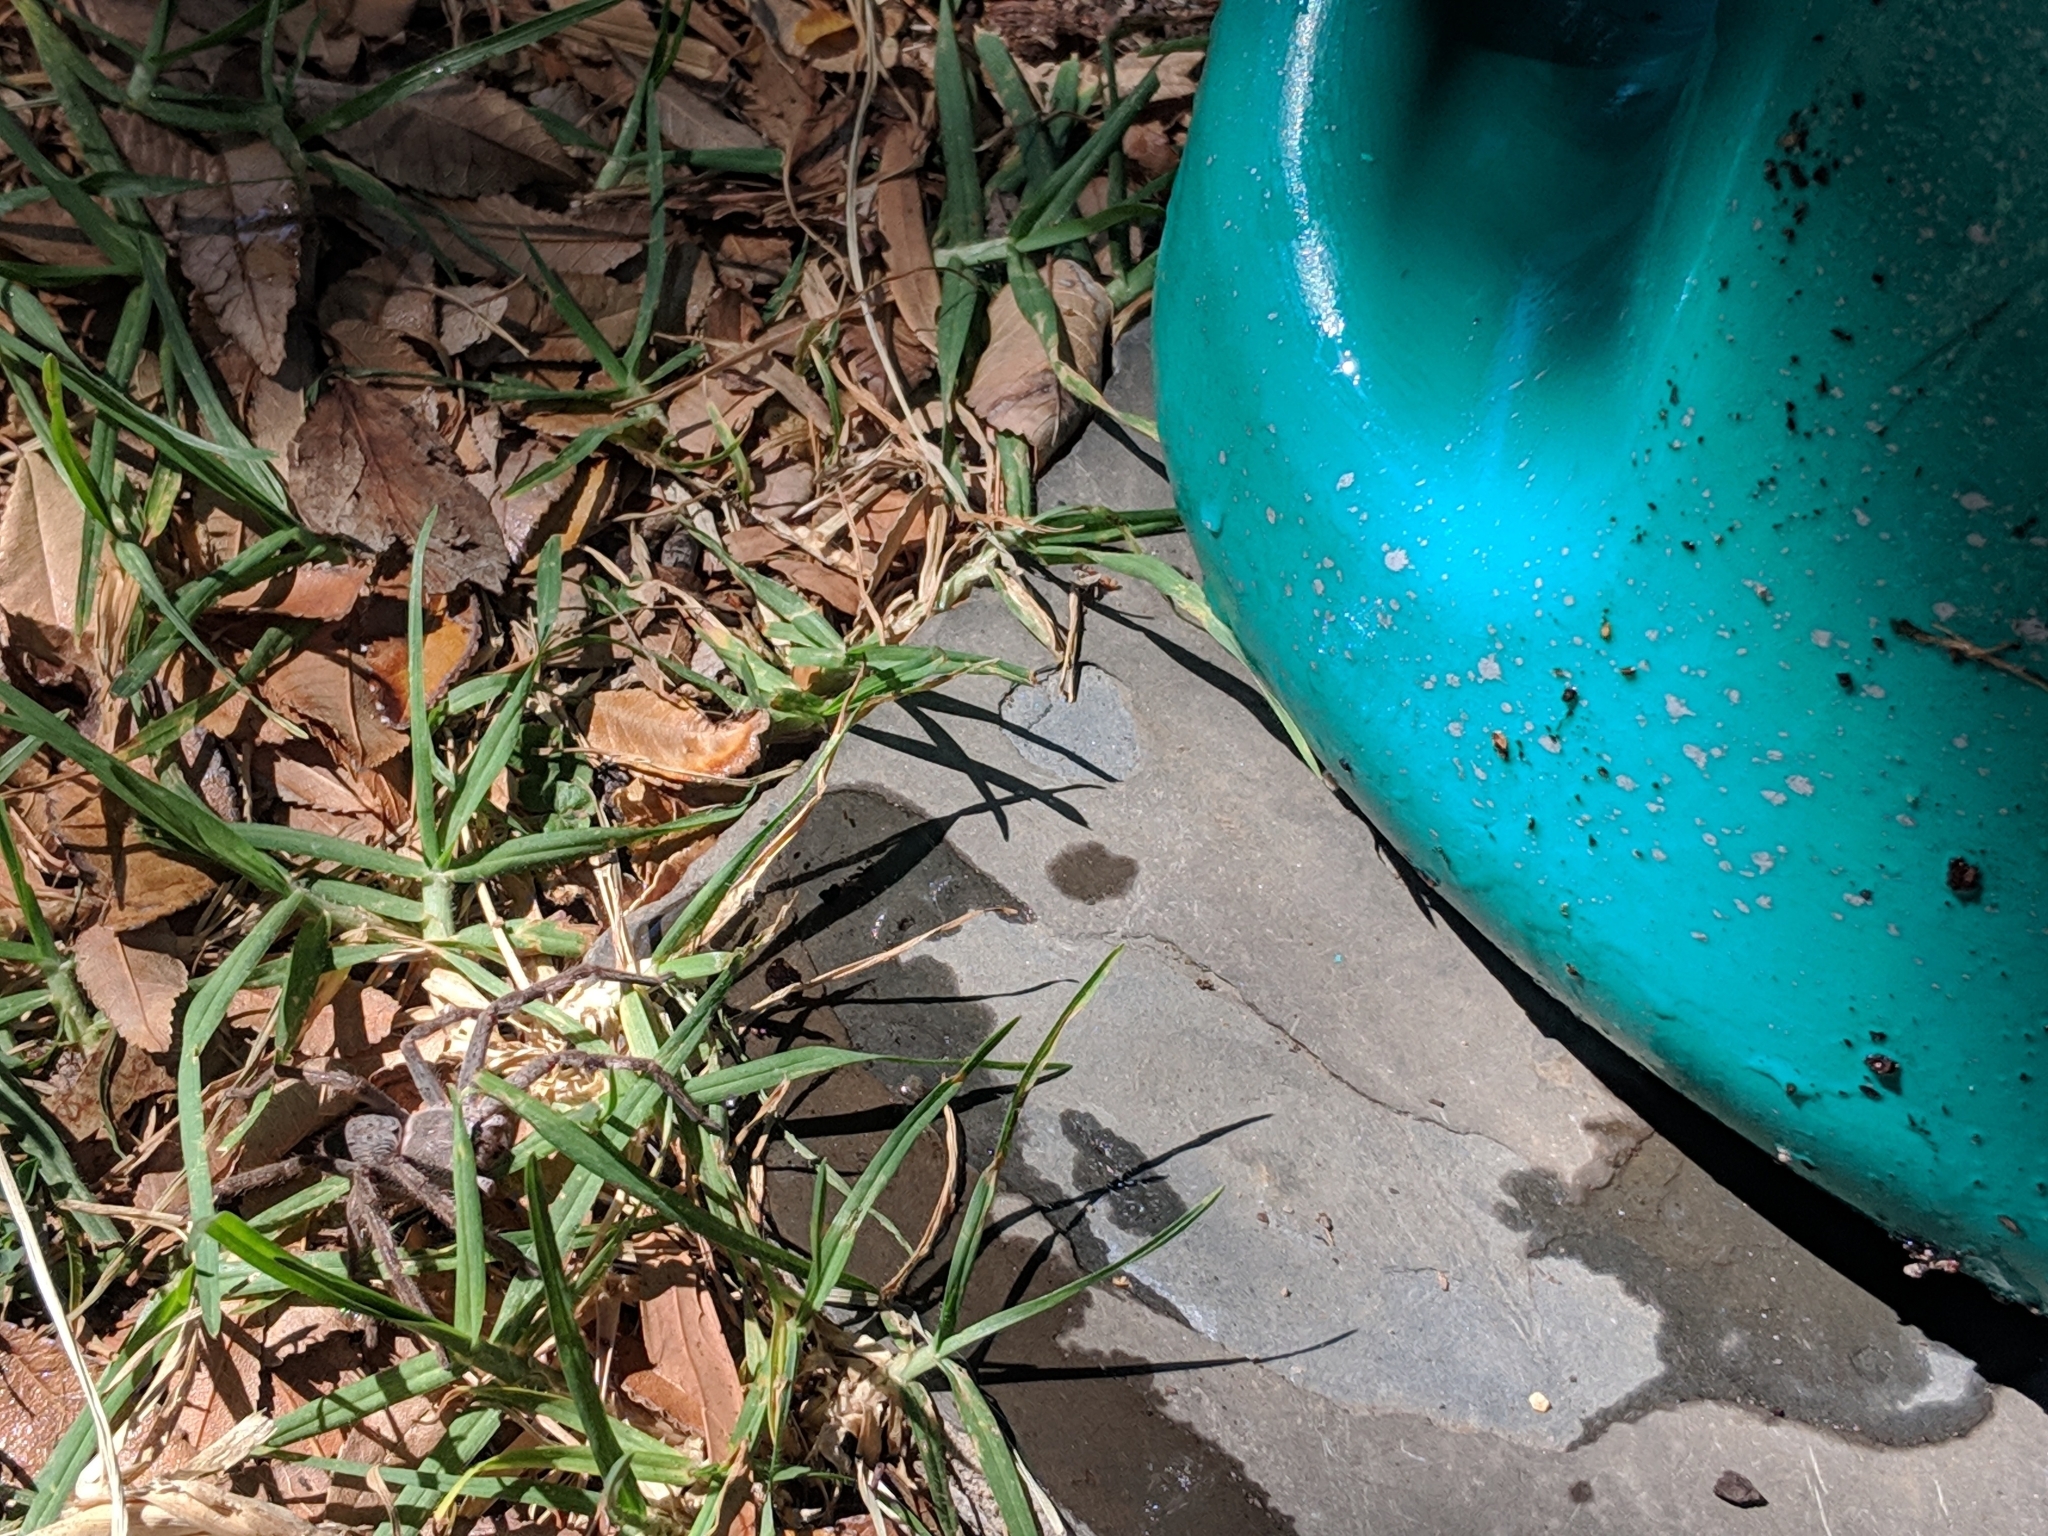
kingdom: Animalia
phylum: Arthropoda
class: Arachnida
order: Araneae
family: Sparassidae
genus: Isopeda
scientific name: Isopeda leishmanni
